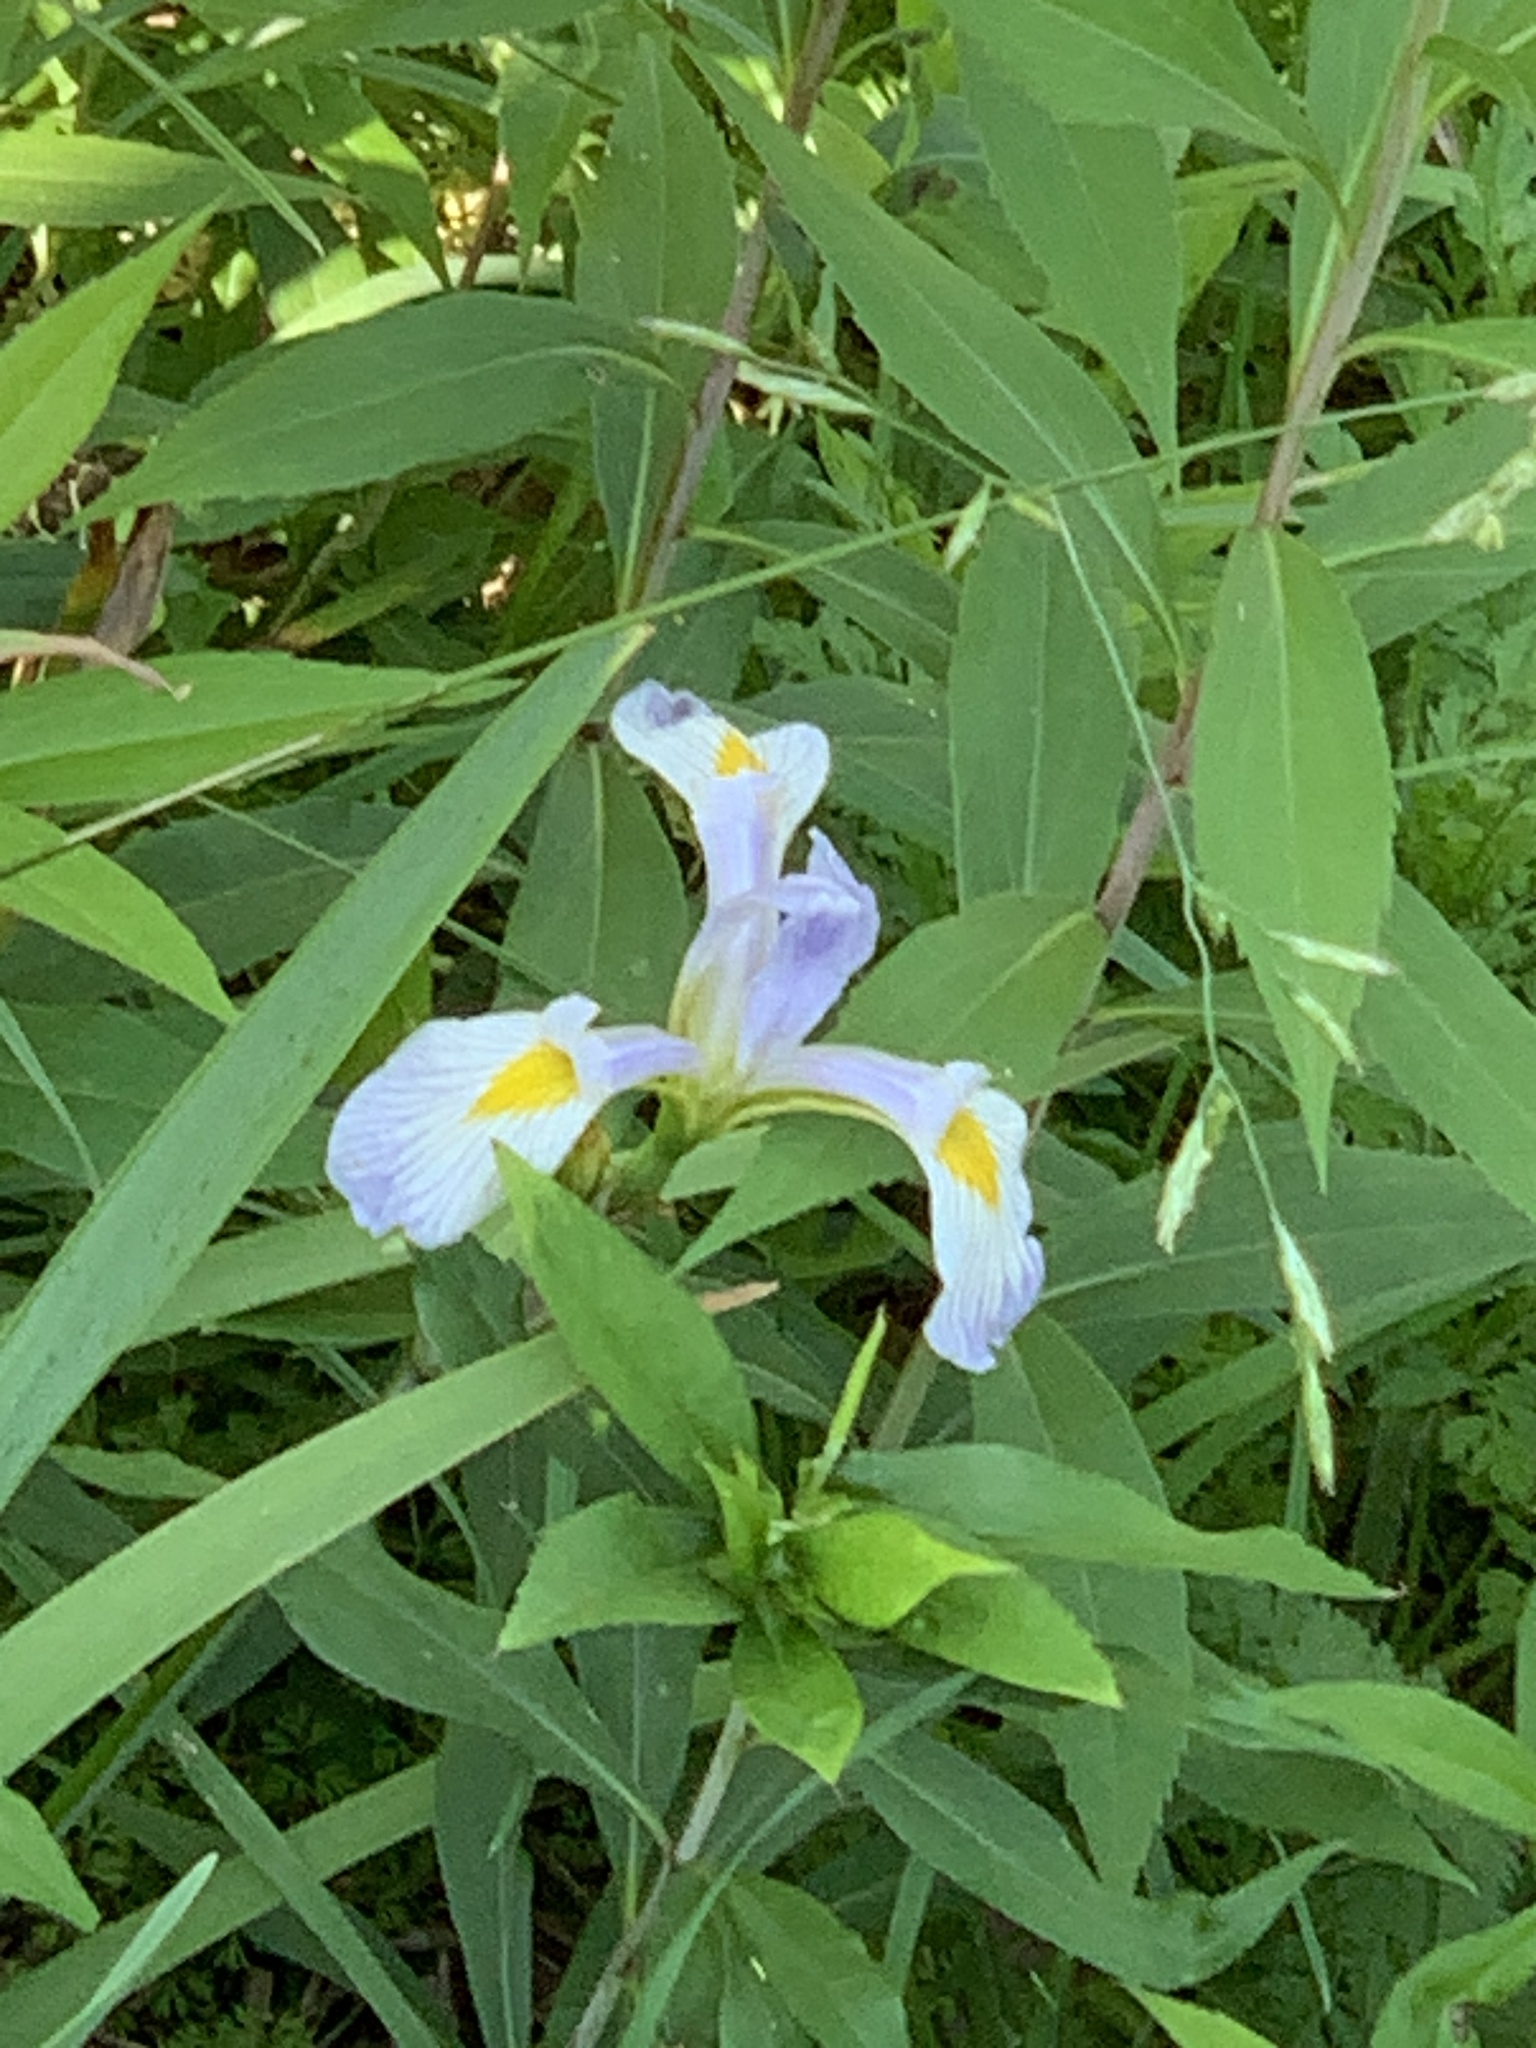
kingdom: Plantae
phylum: Tracheophyta
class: Liliopsida
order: Asparagales
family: Iridaceae
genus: Iris
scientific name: Iris virginica
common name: Southern blue flag
